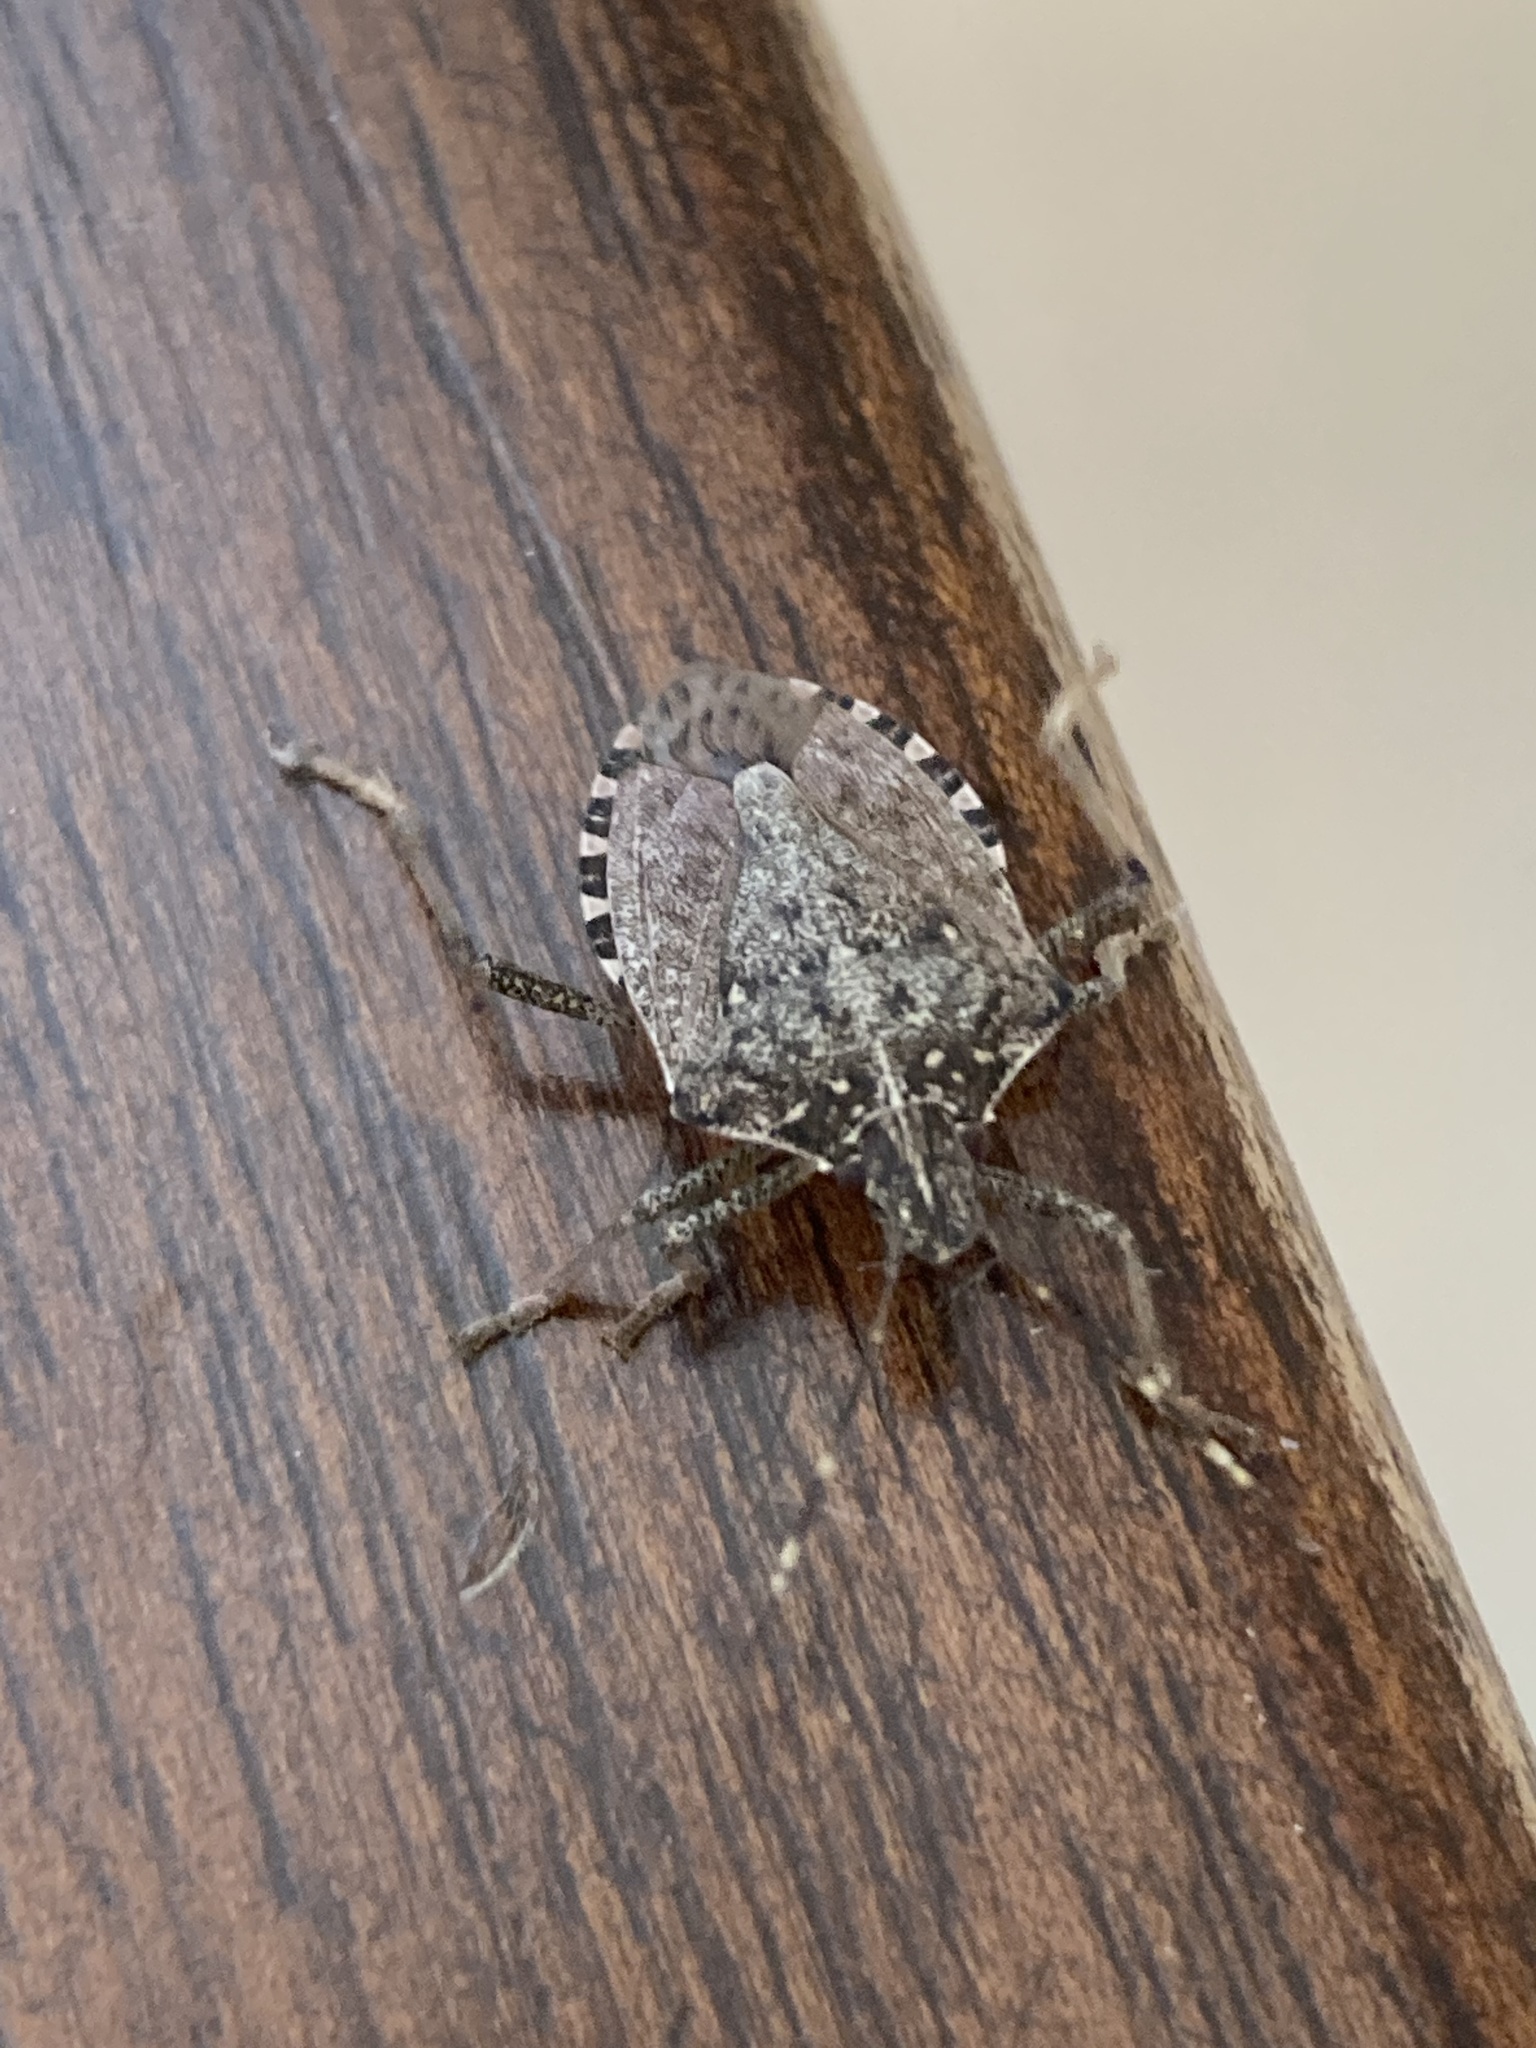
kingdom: Animalia
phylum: Arthropoda
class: Insecta
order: Hemiptera
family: Pentatomidae
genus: Halyomorpha
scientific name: Halyomorpha halys
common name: Brown marmorated stink bug
